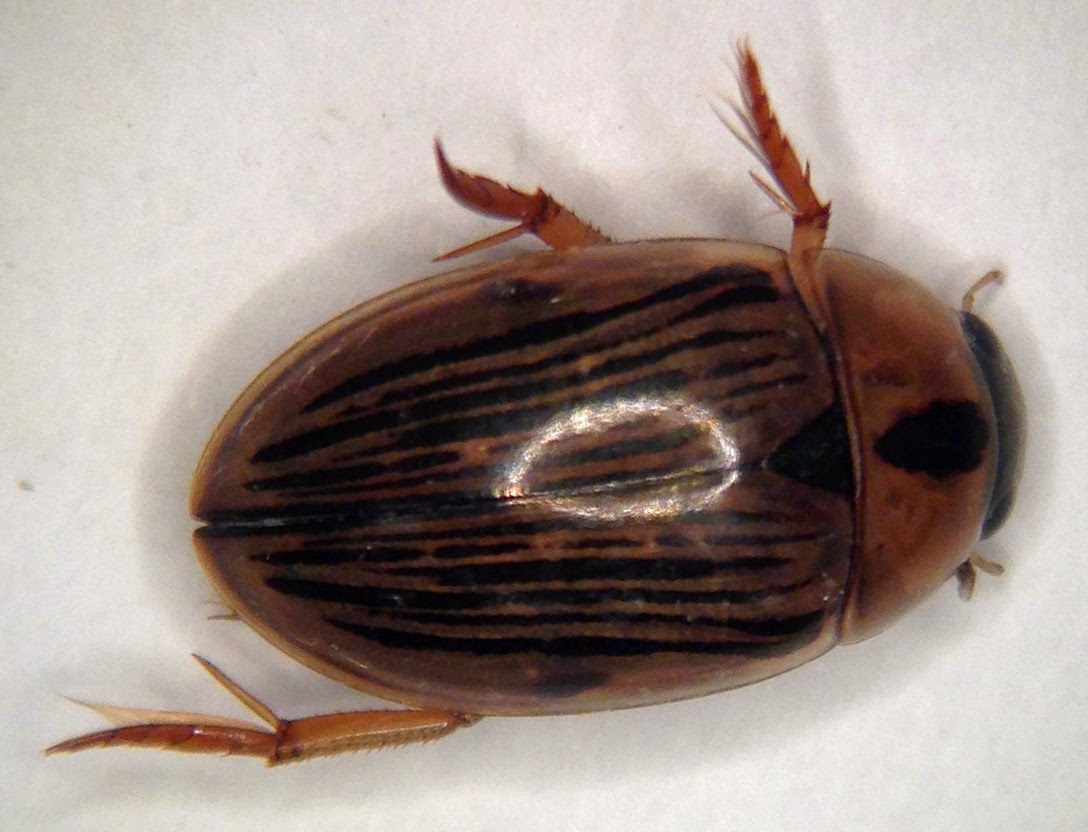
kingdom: Animalia
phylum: Arthropoda
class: Insecta
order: Coleoptera
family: Hydrophilidae
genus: Tropisternus
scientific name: Tropisternus collaris
